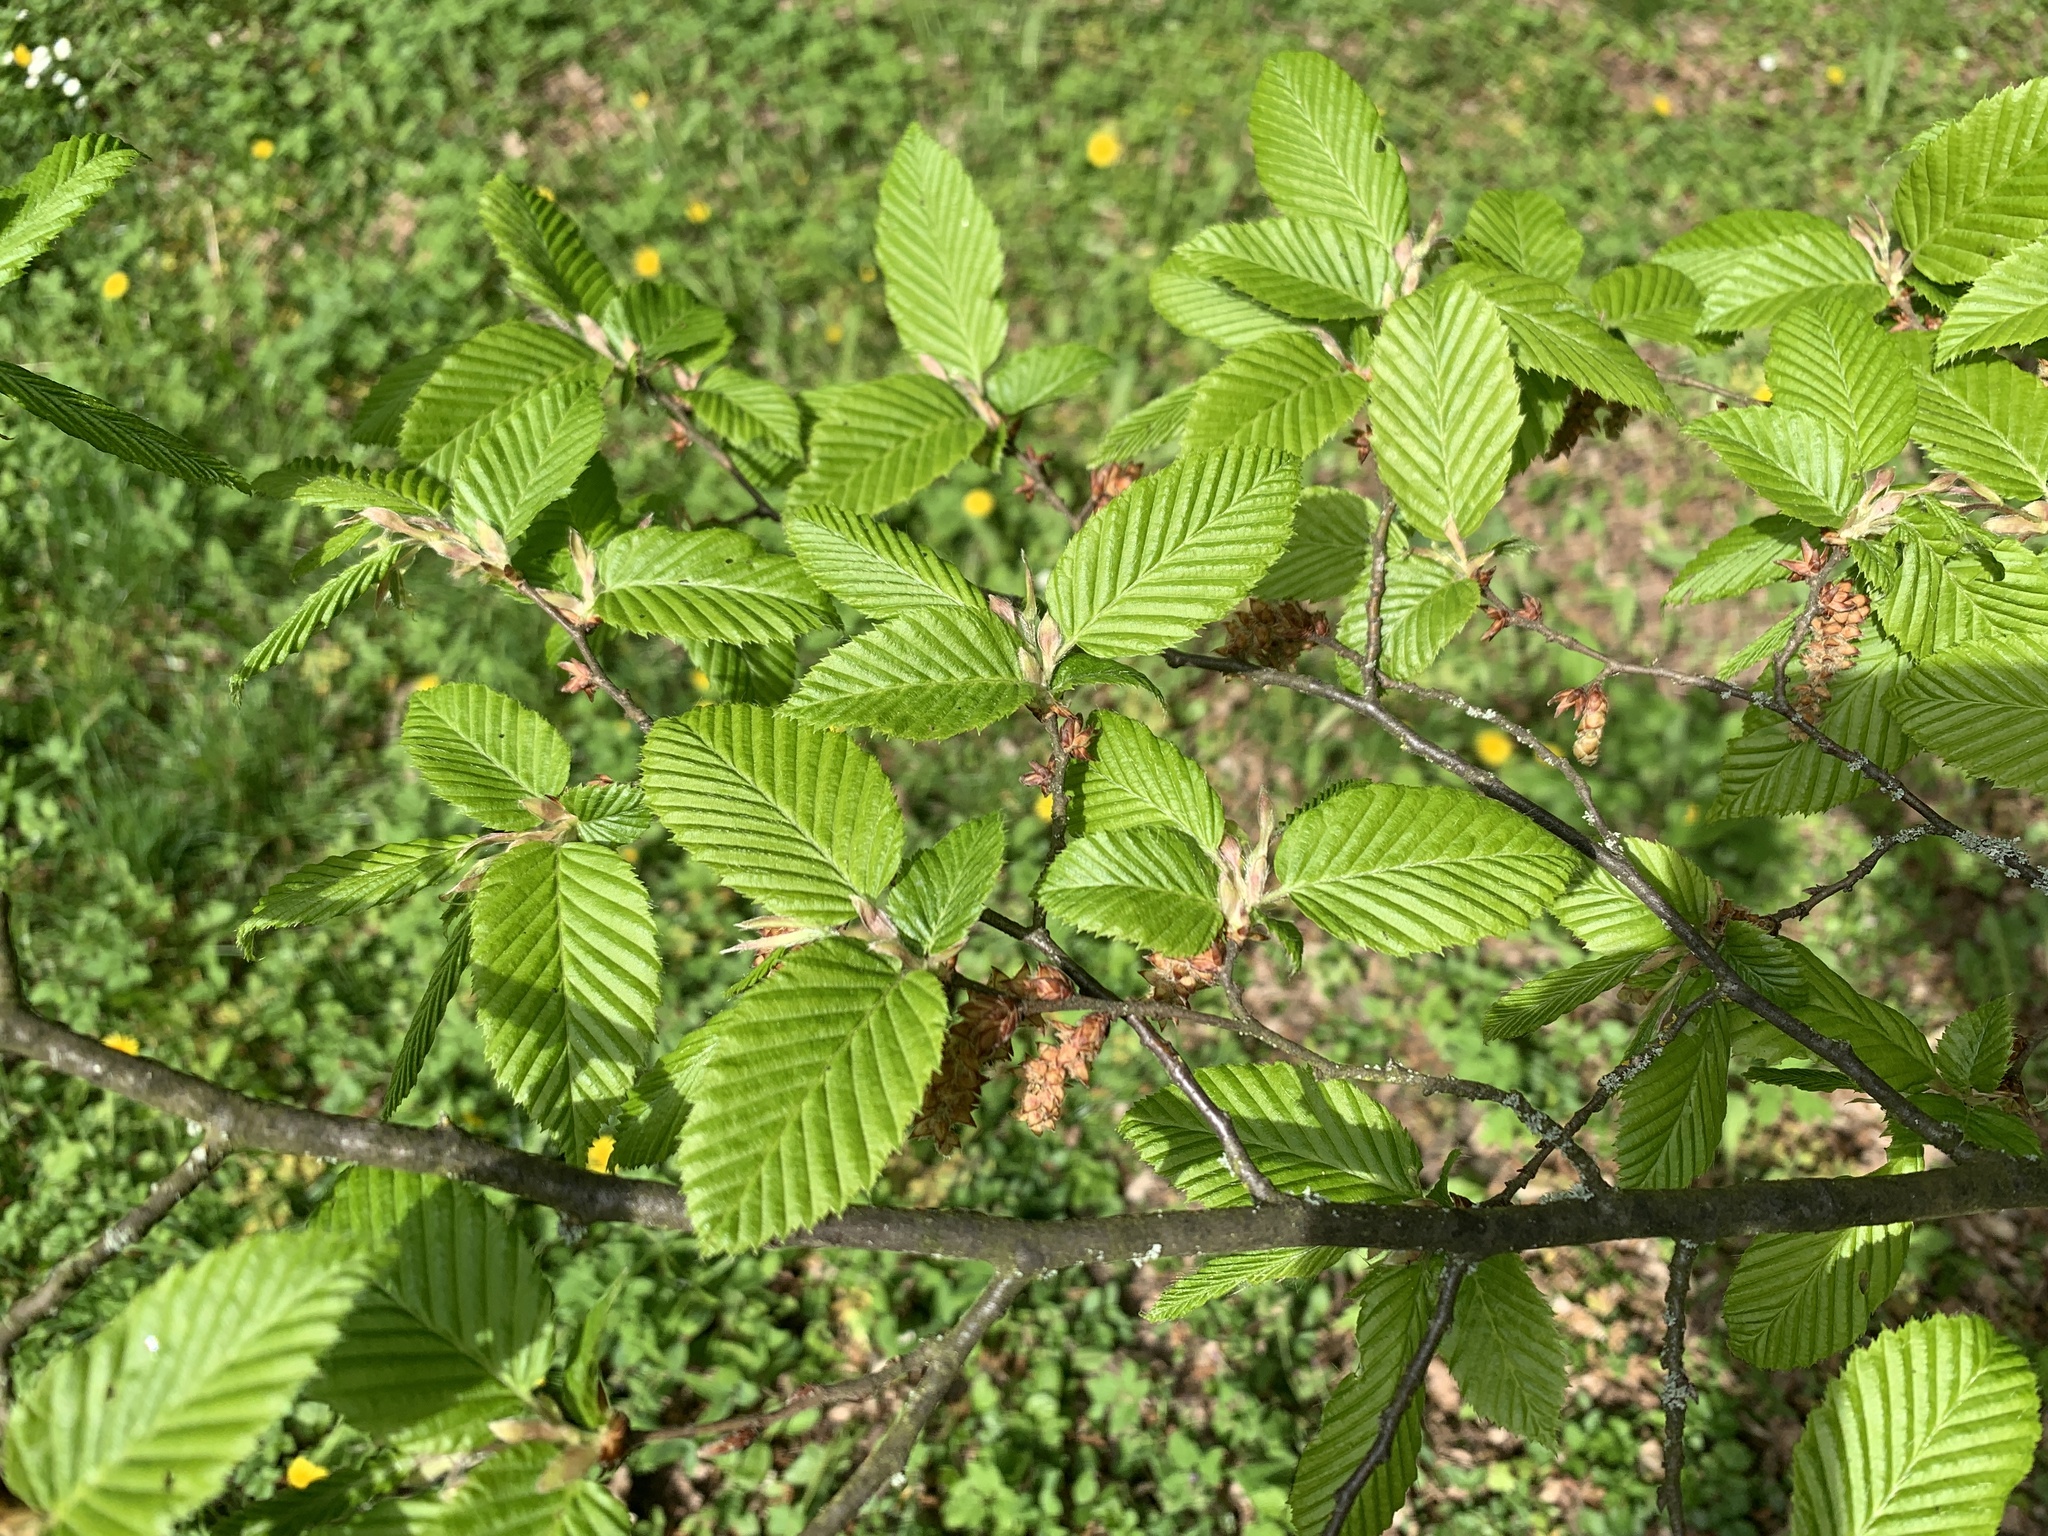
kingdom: Plantae
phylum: Tracheophyta
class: Magnoliopsida
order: Fagales
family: Betulaceae
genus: Carpinus
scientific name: Carpinus betulus
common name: Hornbeam
